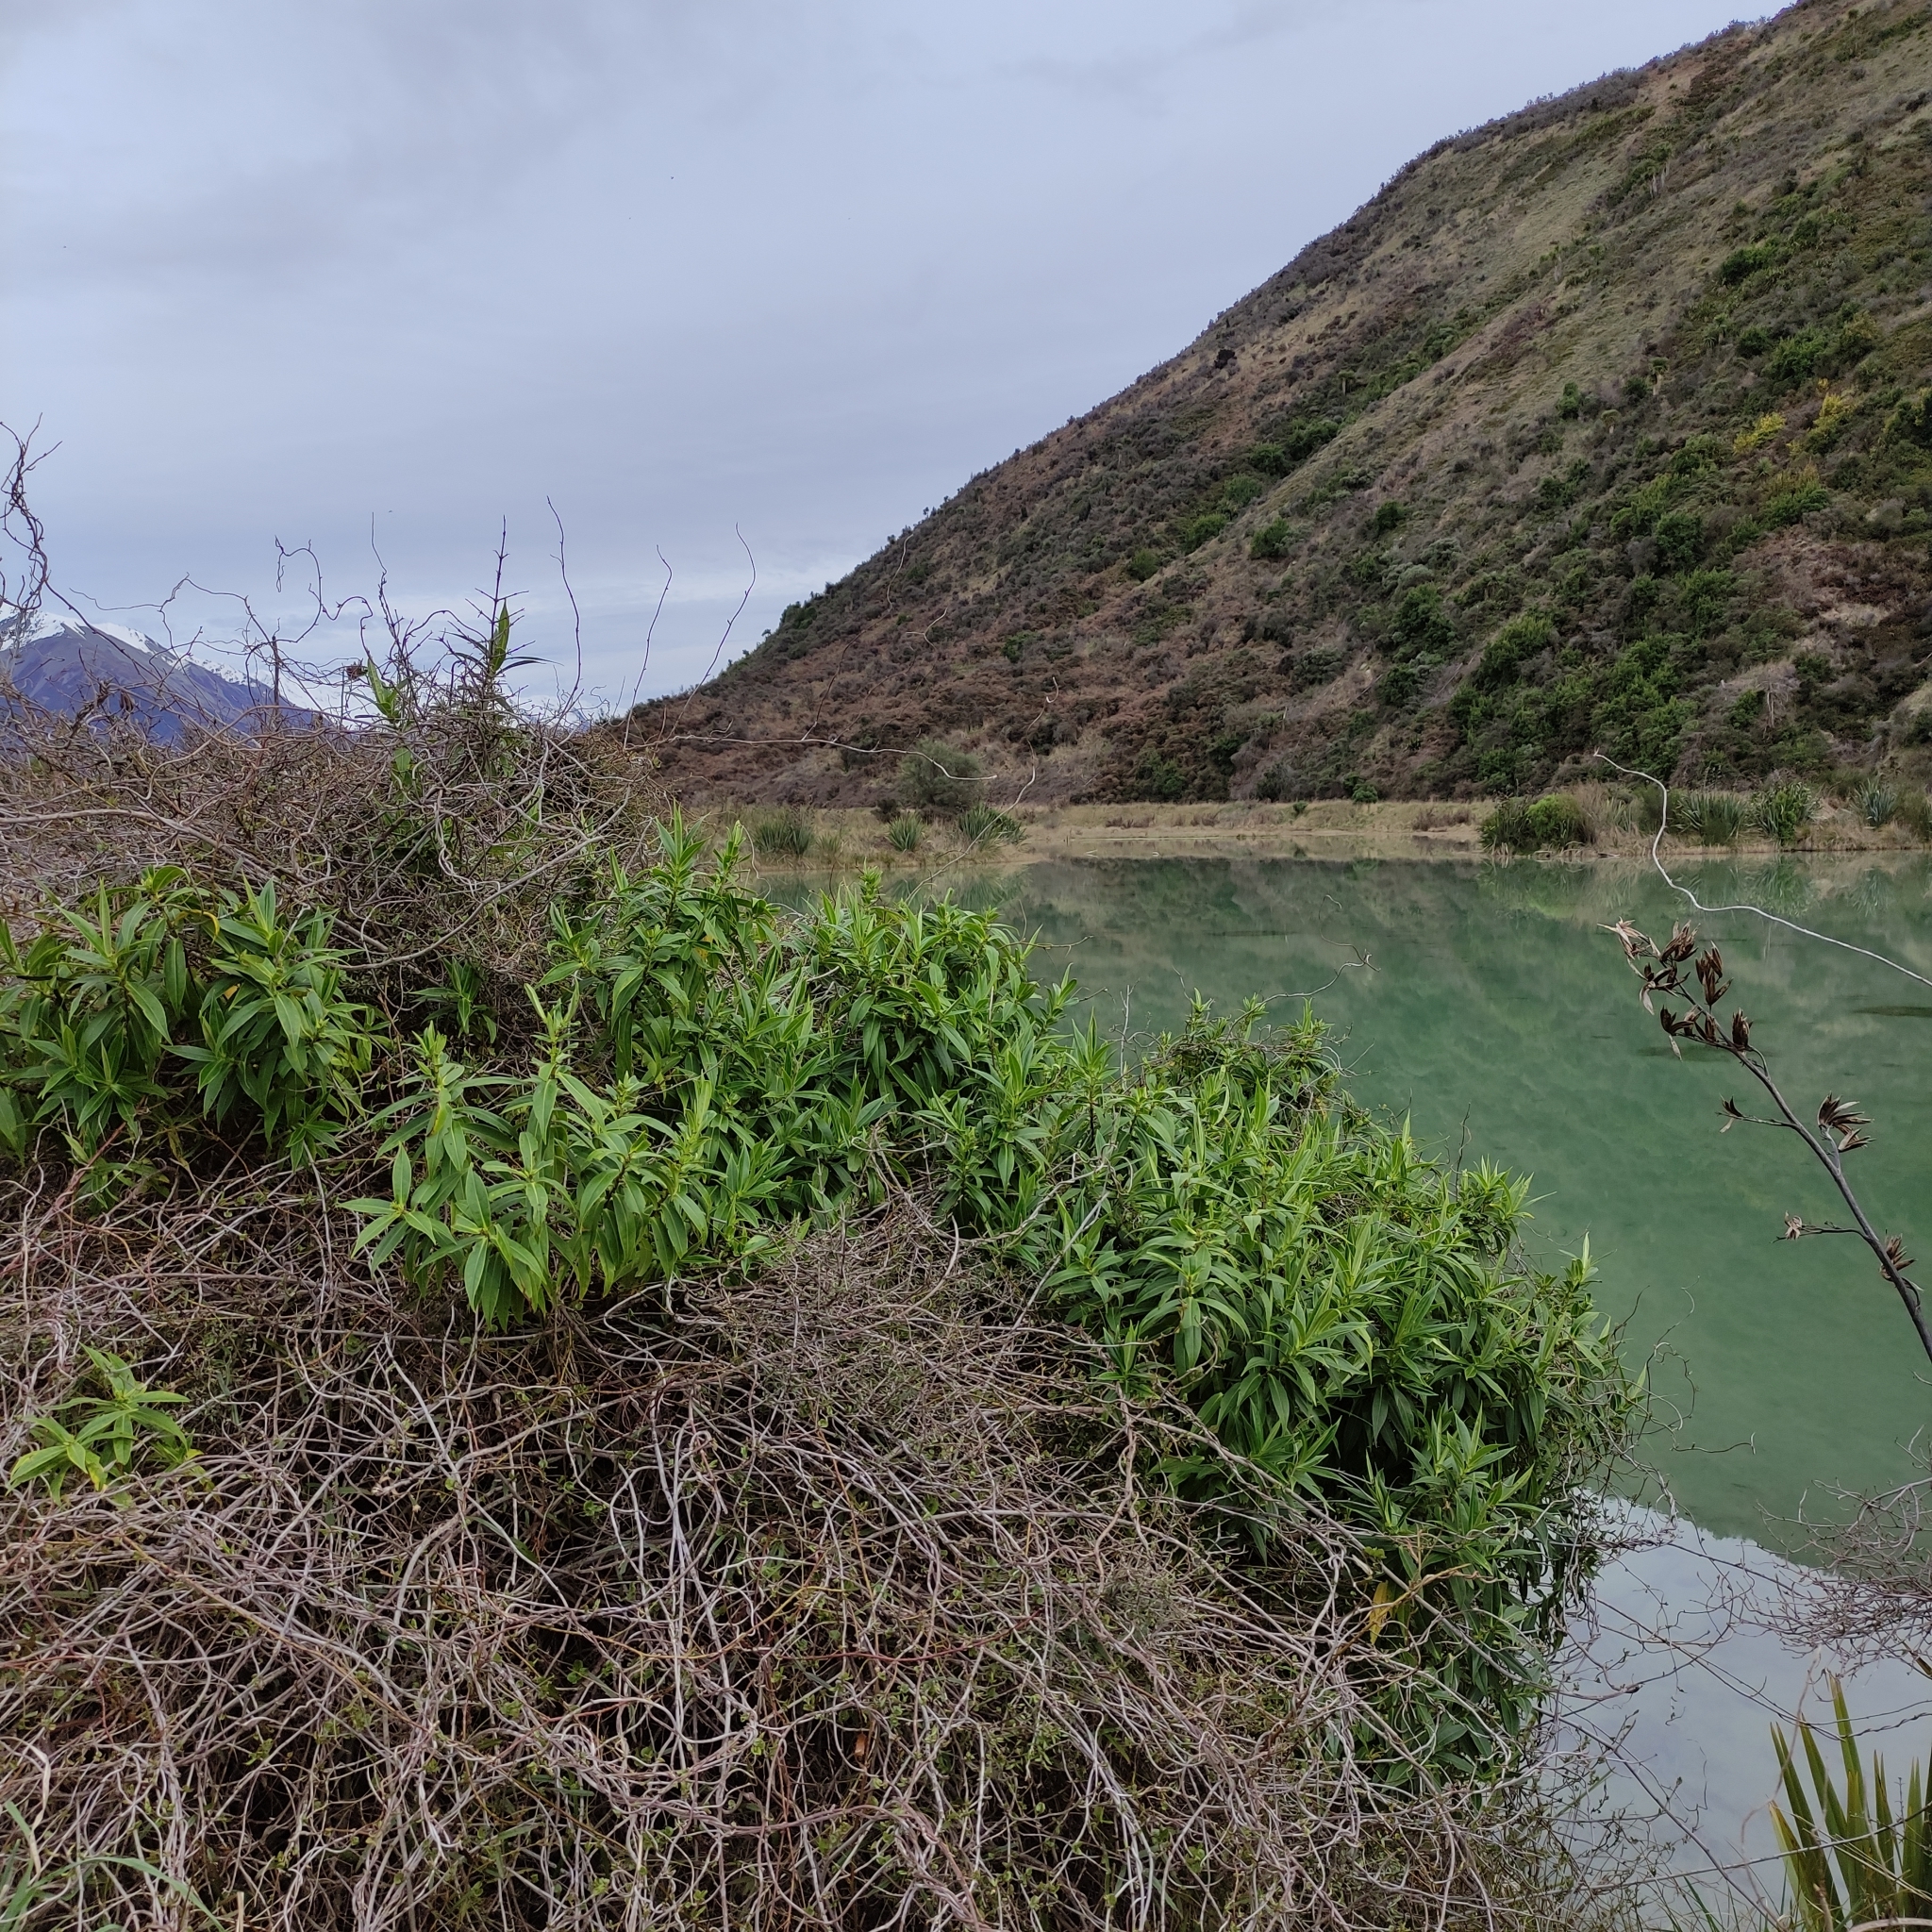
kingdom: Plantae
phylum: Tracheophyta
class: Magnoliopsida
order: Lamiales
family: Plantaginaceae
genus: Veronica
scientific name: Veronica salicifolia
